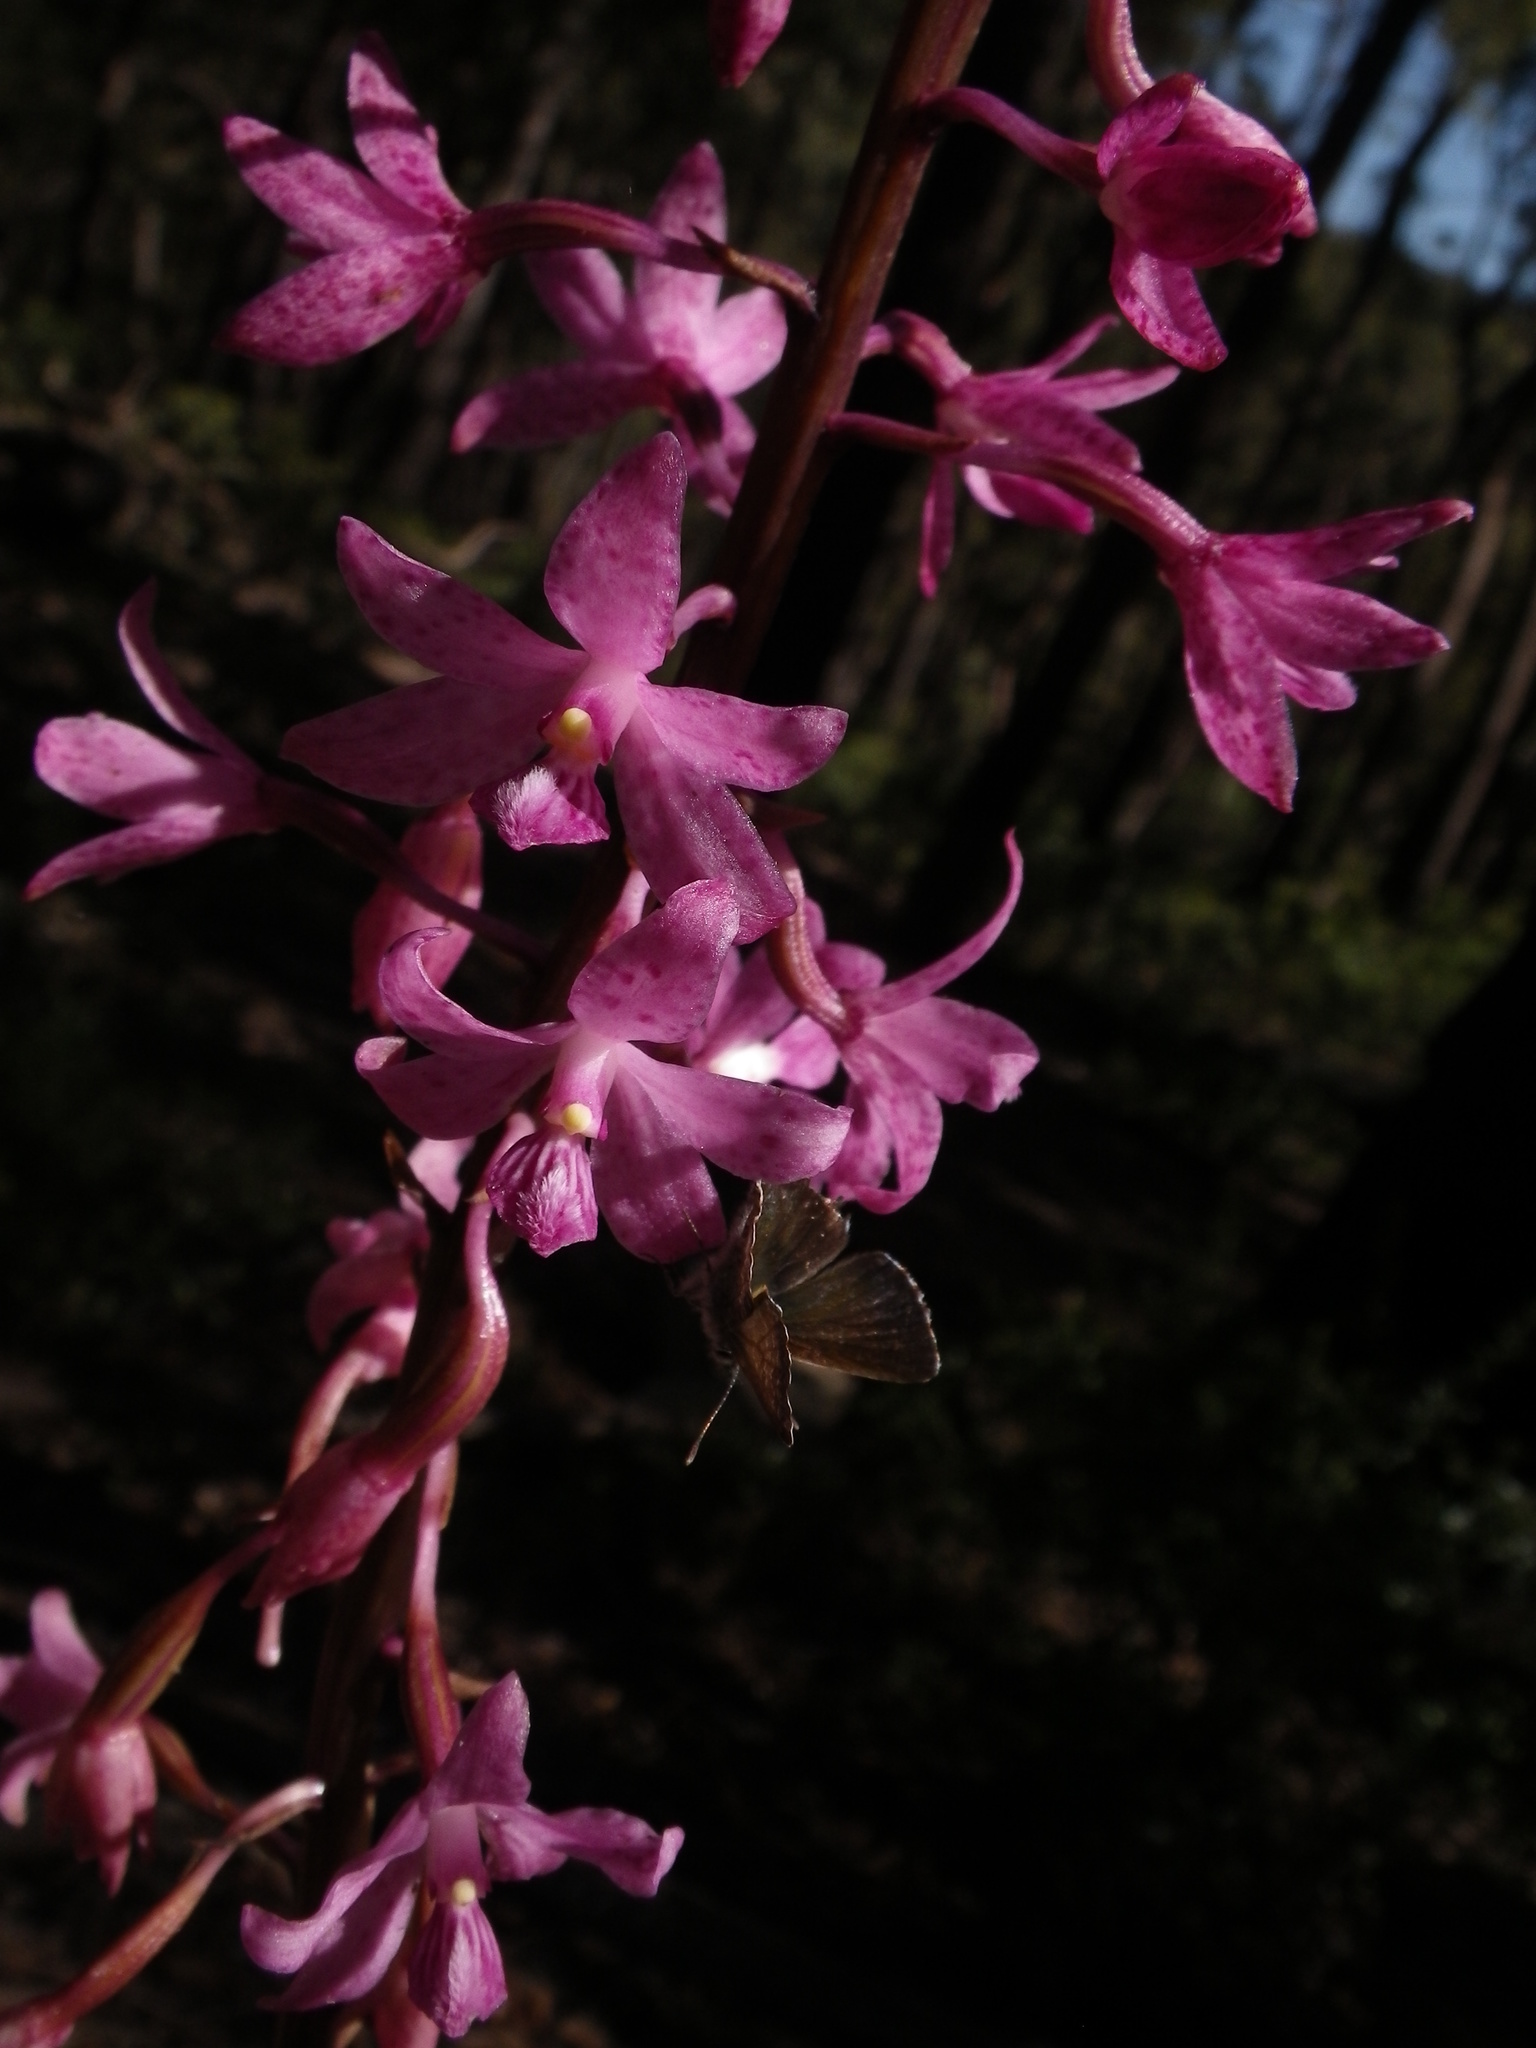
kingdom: Plantae
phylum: Tracheophyta
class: Liliopsida
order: Asparagales
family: Orchidaceae
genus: Dipodium
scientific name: Dipodium roseum
